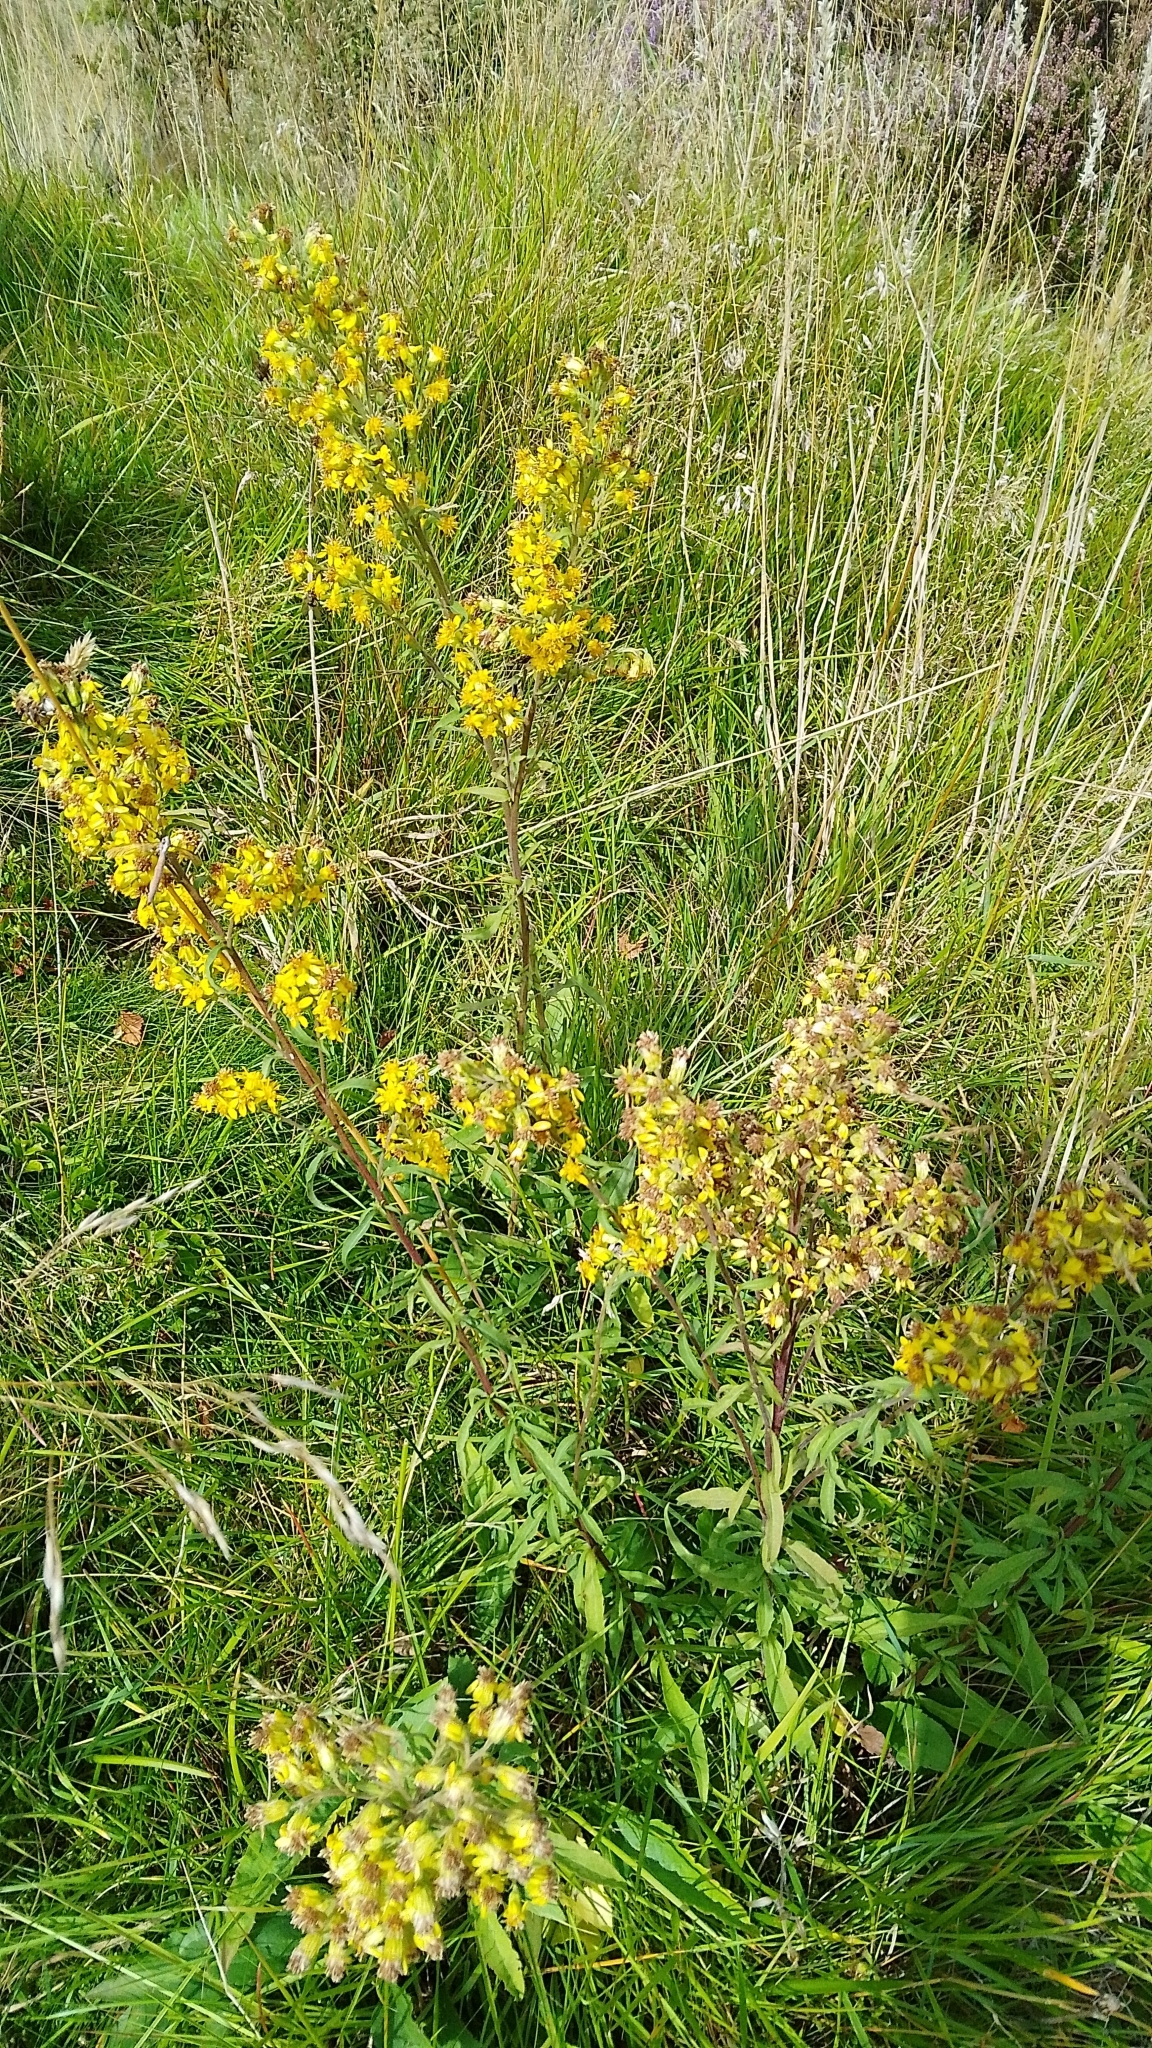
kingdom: Plantae
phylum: Tracheophyta
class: Magnoliopsida
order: Asterales
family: Asteraceae
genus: Solidago
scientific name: Solidago virgaurea
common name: Goldenrod
